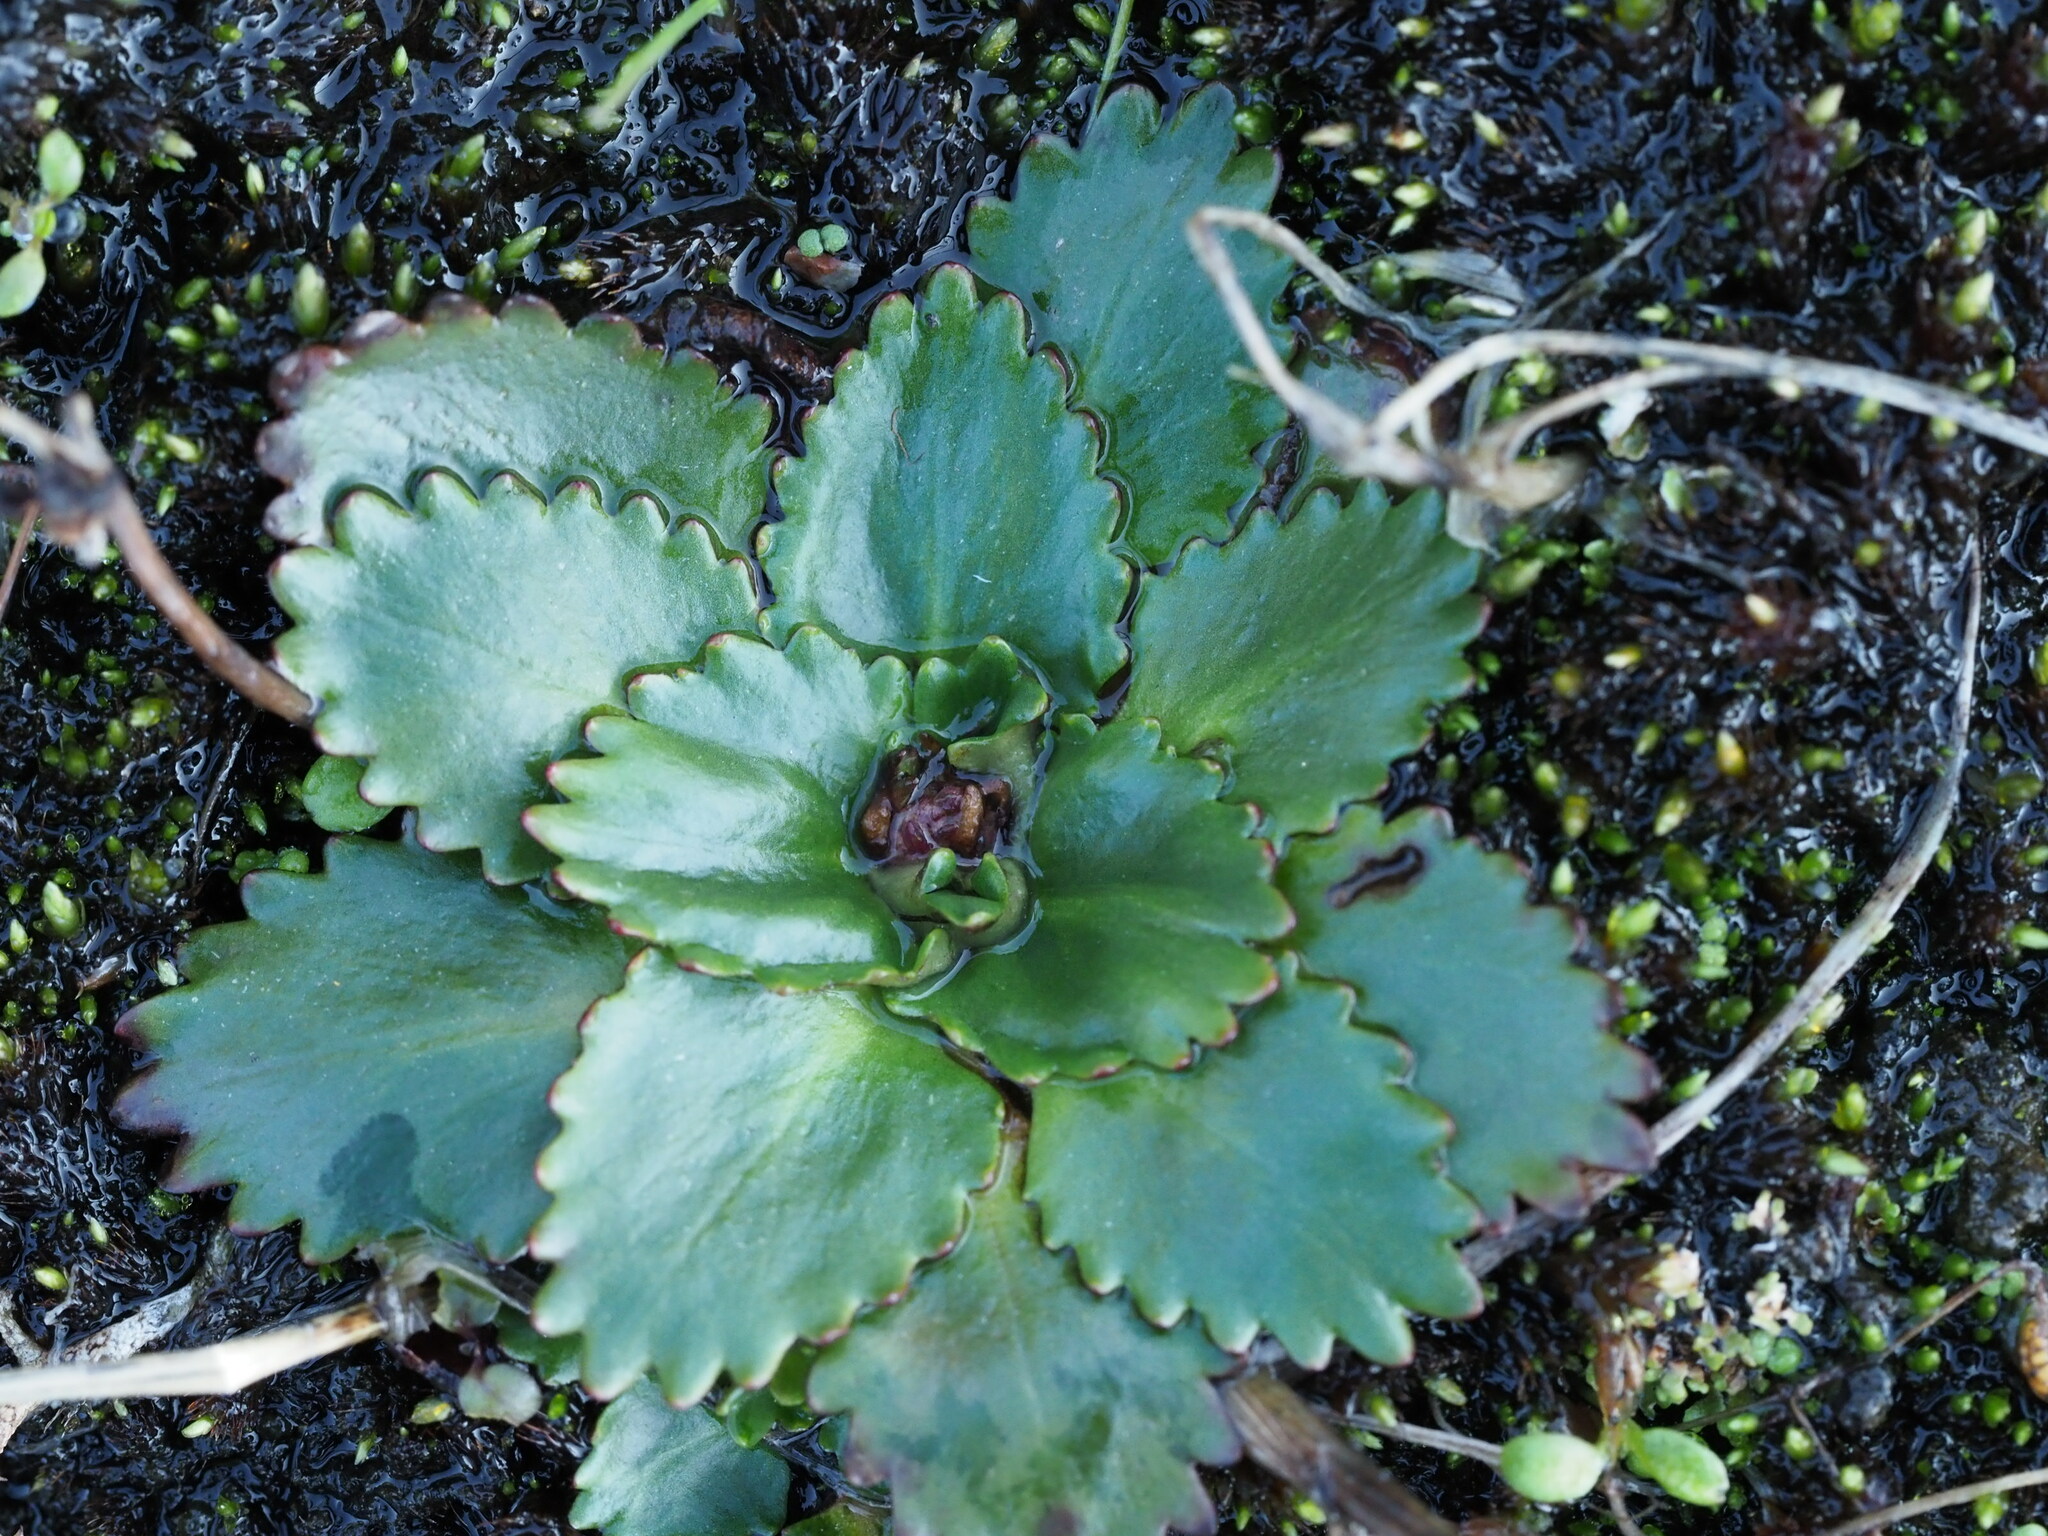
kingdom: Plantae
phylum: Tracheophyta
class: Magnoliopsida
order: Saxifragales
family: Saxifragaceae
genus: Micranthes
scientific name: Micranthes rufidula
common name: Rustyhair saxifrage
